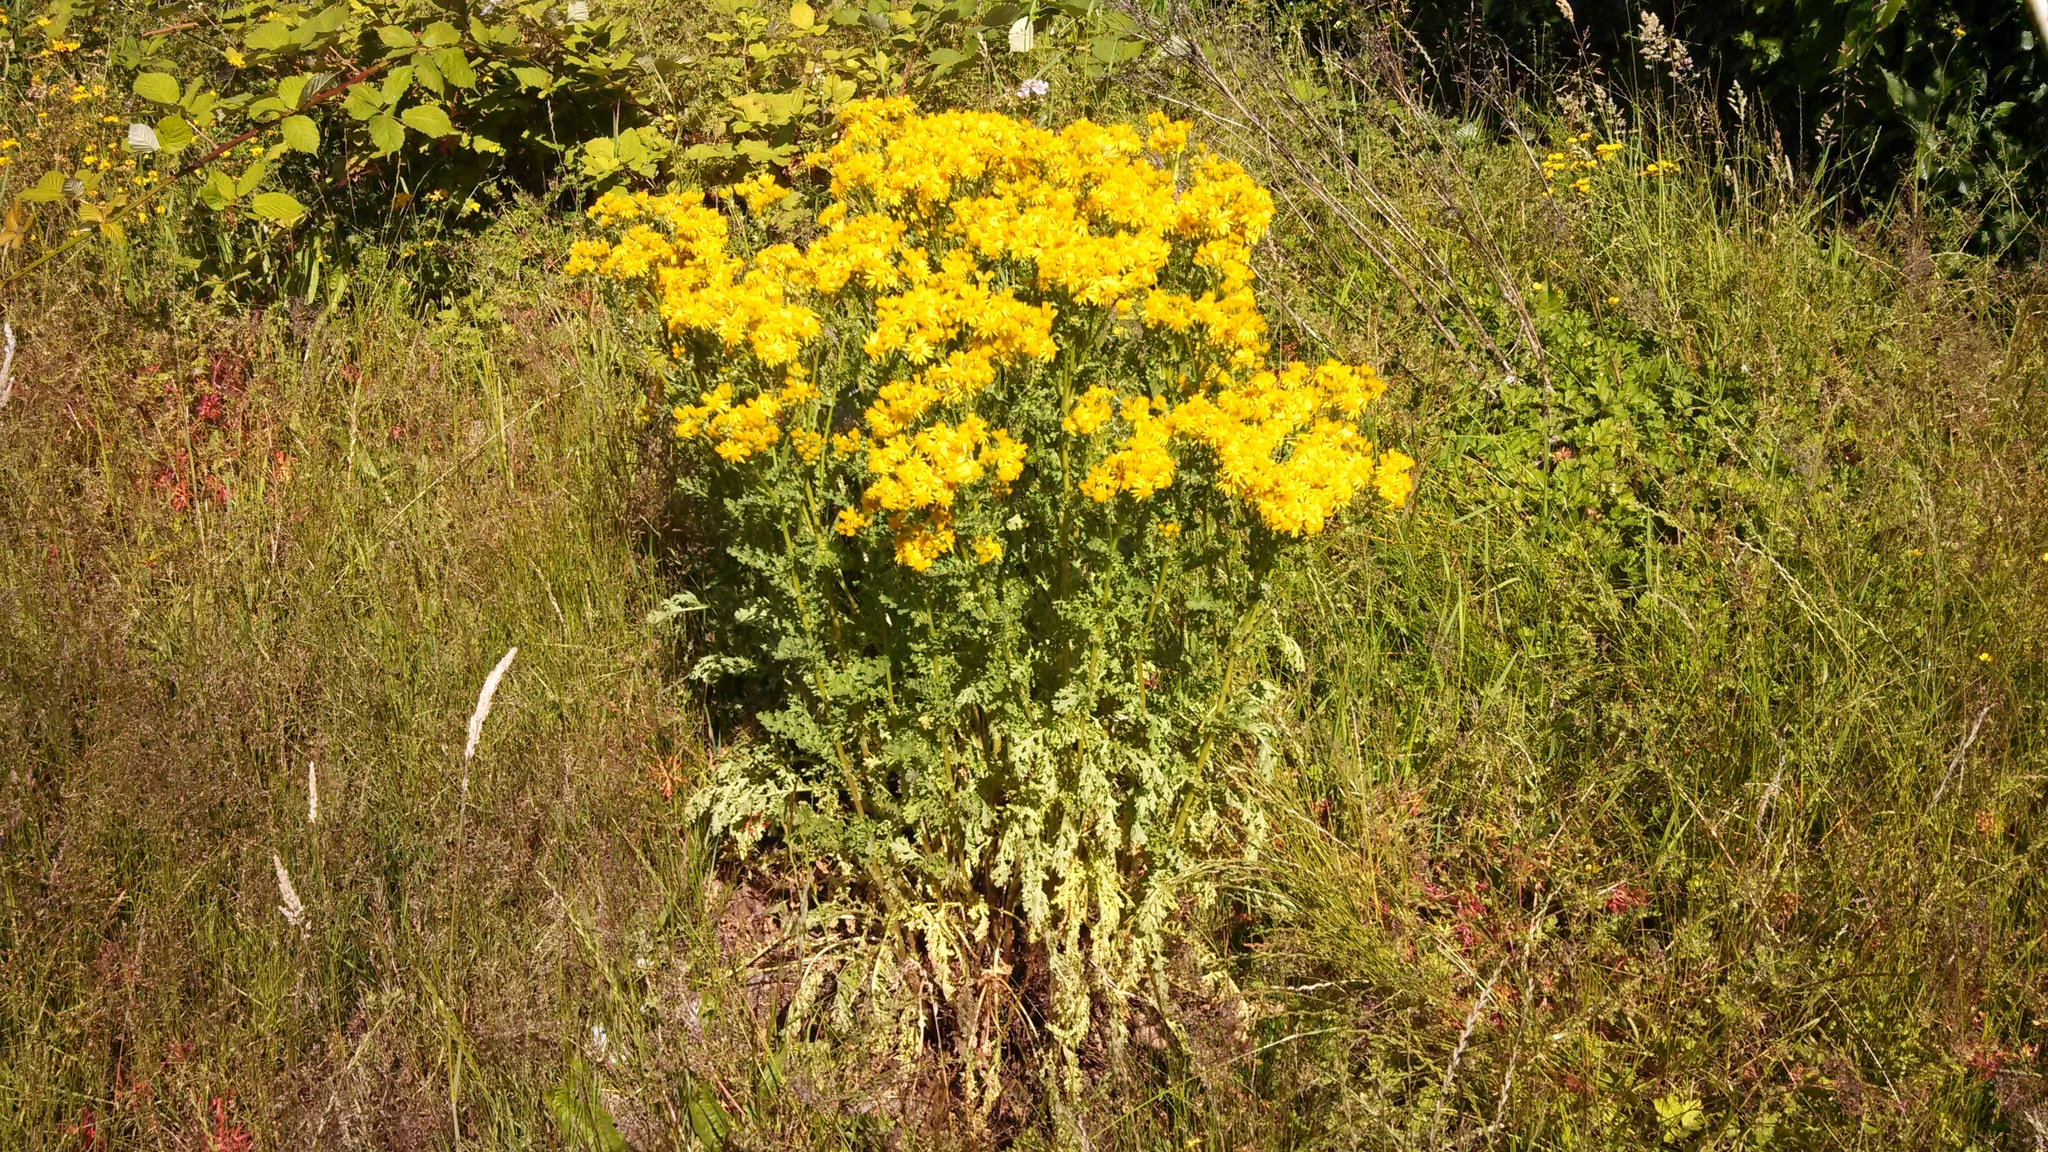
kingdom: Plantae
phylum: Tracheophyta
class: Magnoliopsida
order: Asterales
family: Asteraceae
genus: Jacobaea
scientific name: Jacobaea vulgaris
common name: Stinking willie
